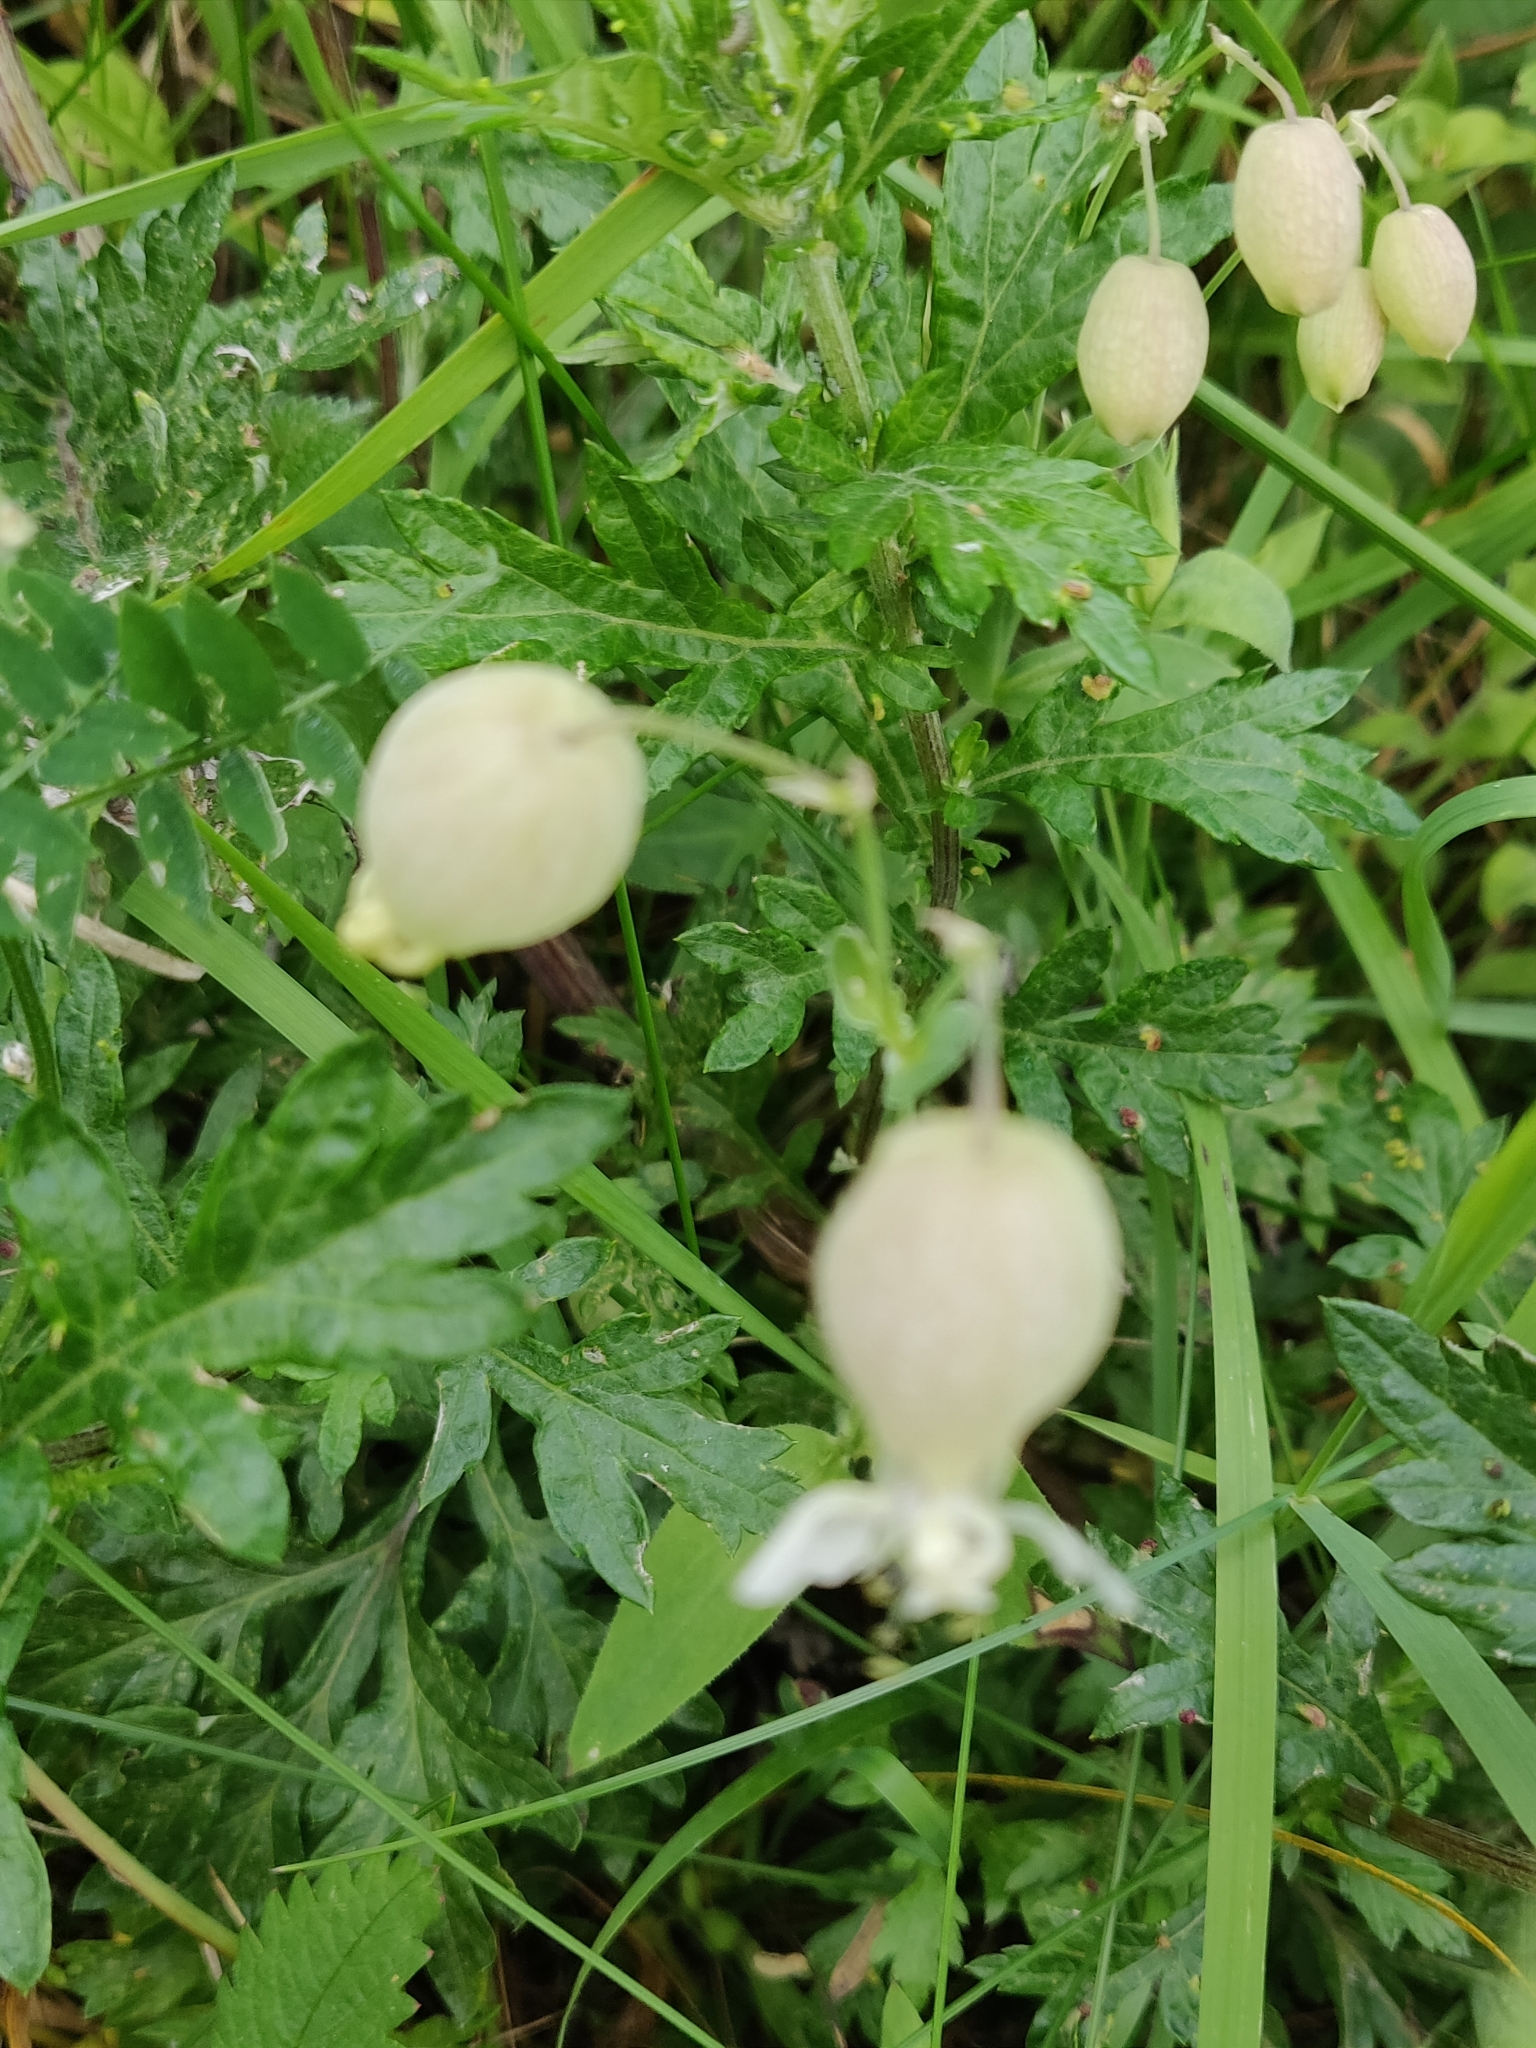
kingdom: Plantae
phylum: Tracheophyta
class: Magnoliopsida
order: Caryophyllales
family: Caryophyllaceae
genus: Silene
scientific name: Silene vulgaris
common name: Bladder campion
